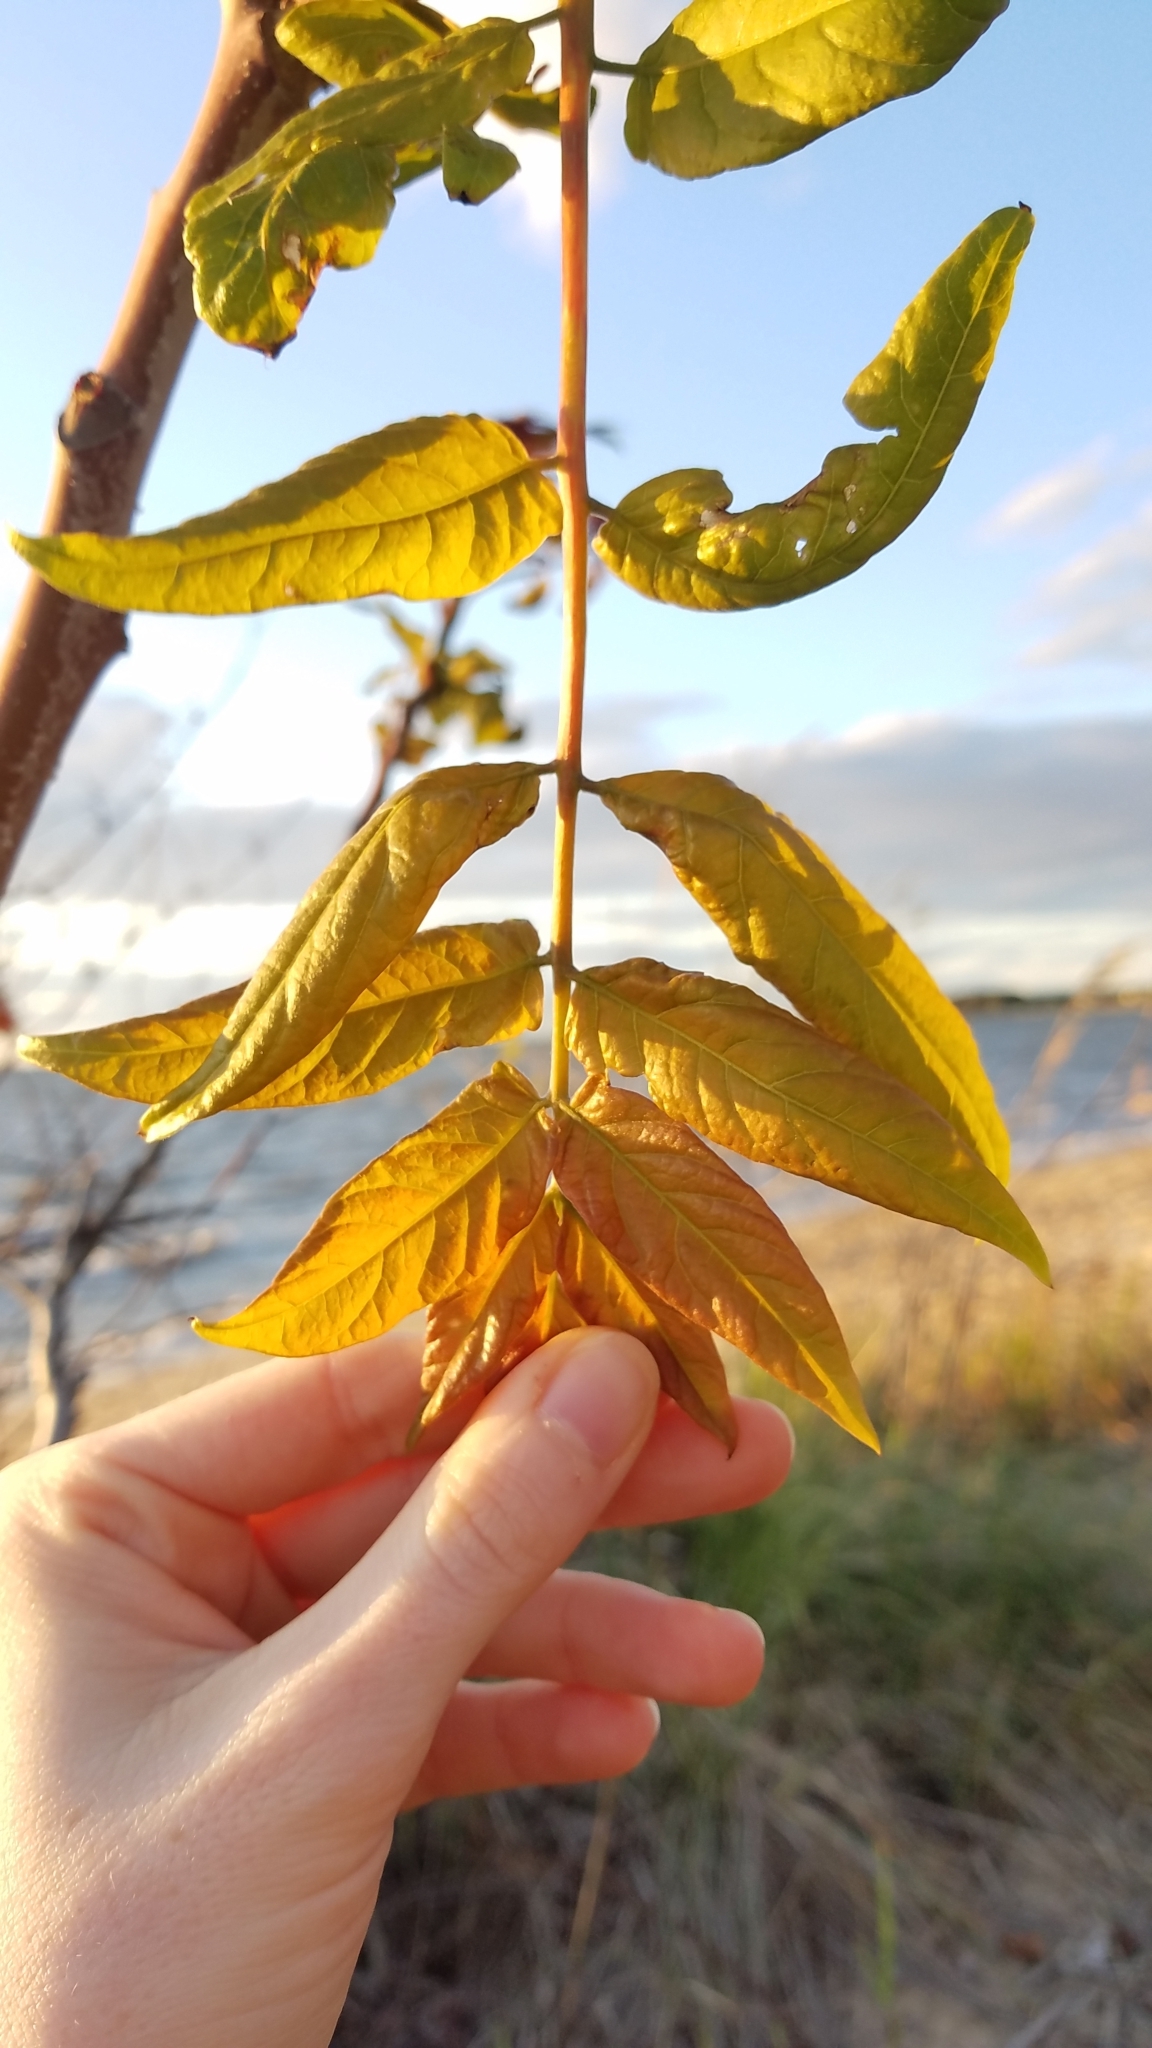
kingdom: Plantae
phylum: Tracheophyta
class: Magnoliopsida
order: Sapindales
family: Simaroubaceae
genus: Ailanthus
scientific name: Ailanthus altissima
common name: Tree-of-heaven
